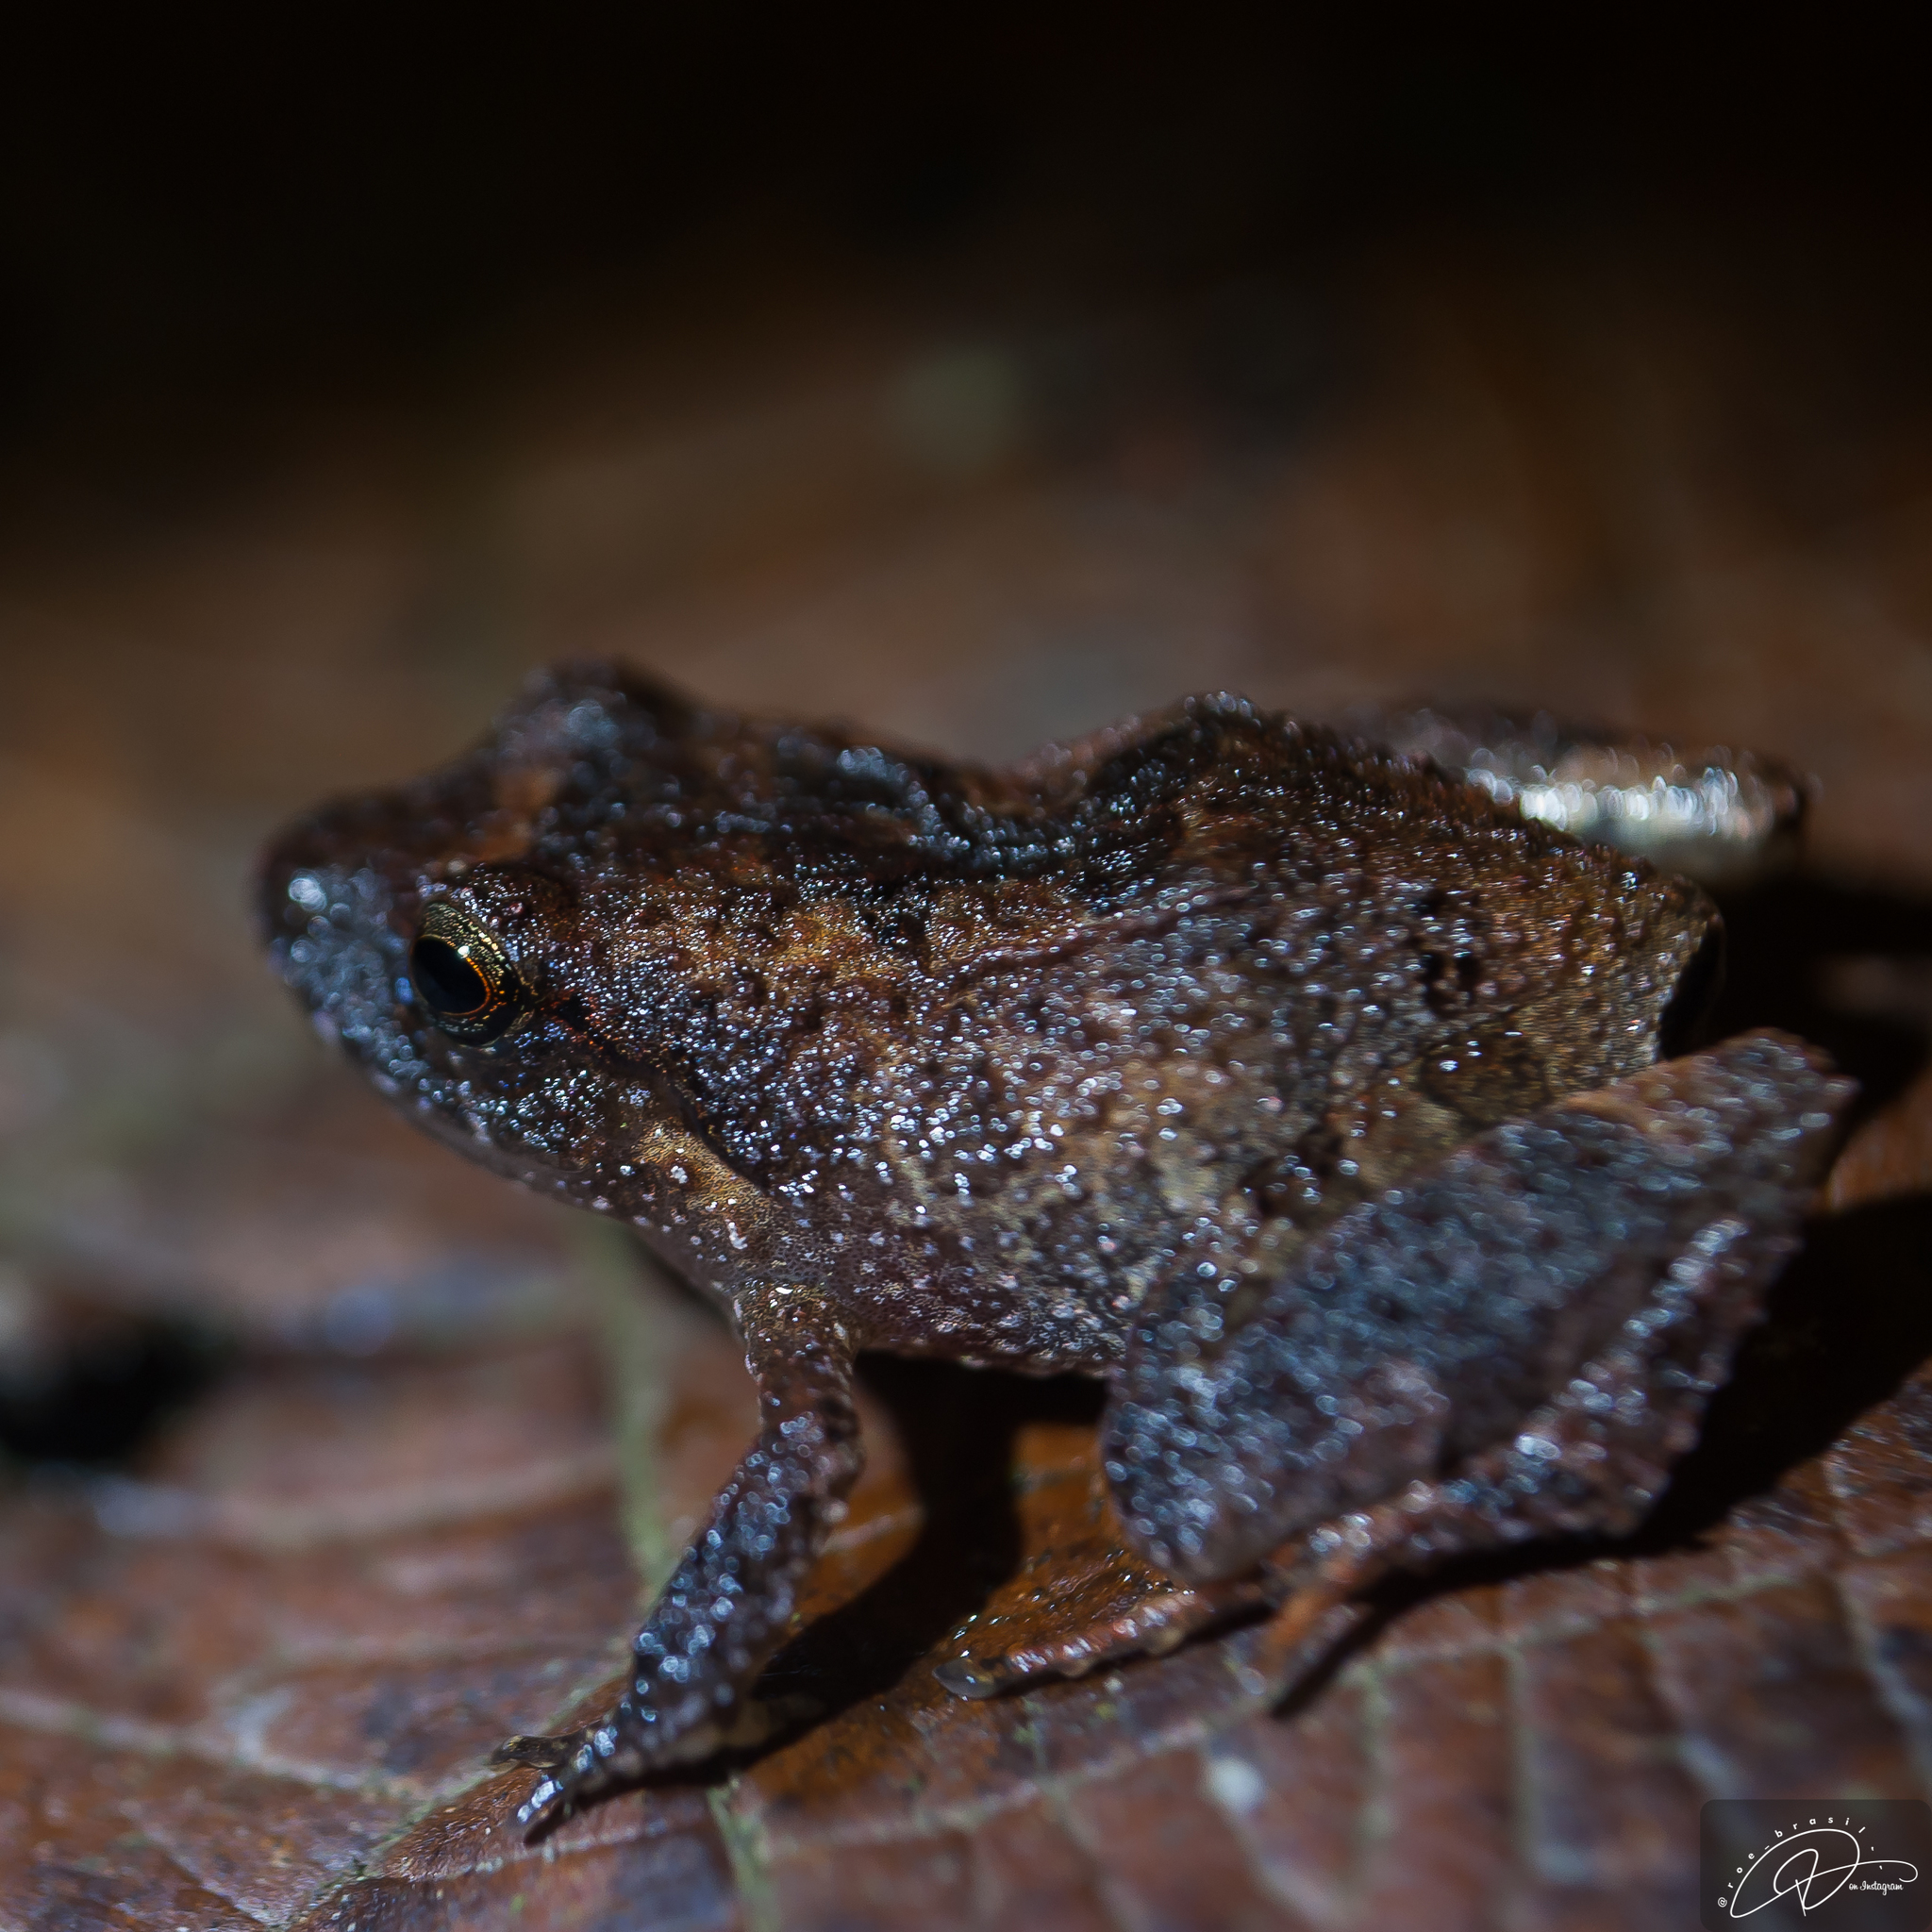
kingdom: Animalia
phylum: Chordata
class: Amphibia
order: Anura
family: Brachycephalidae
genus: Ischnocnema
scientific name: Ischnocnema parva
